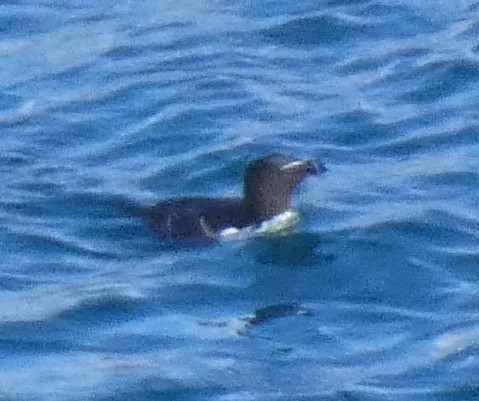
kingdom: Animalia
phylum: Chordata
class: Aves
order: Charadriiformes
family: Alcidae
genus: Alca
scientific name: Alca torda
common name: Razorbill
